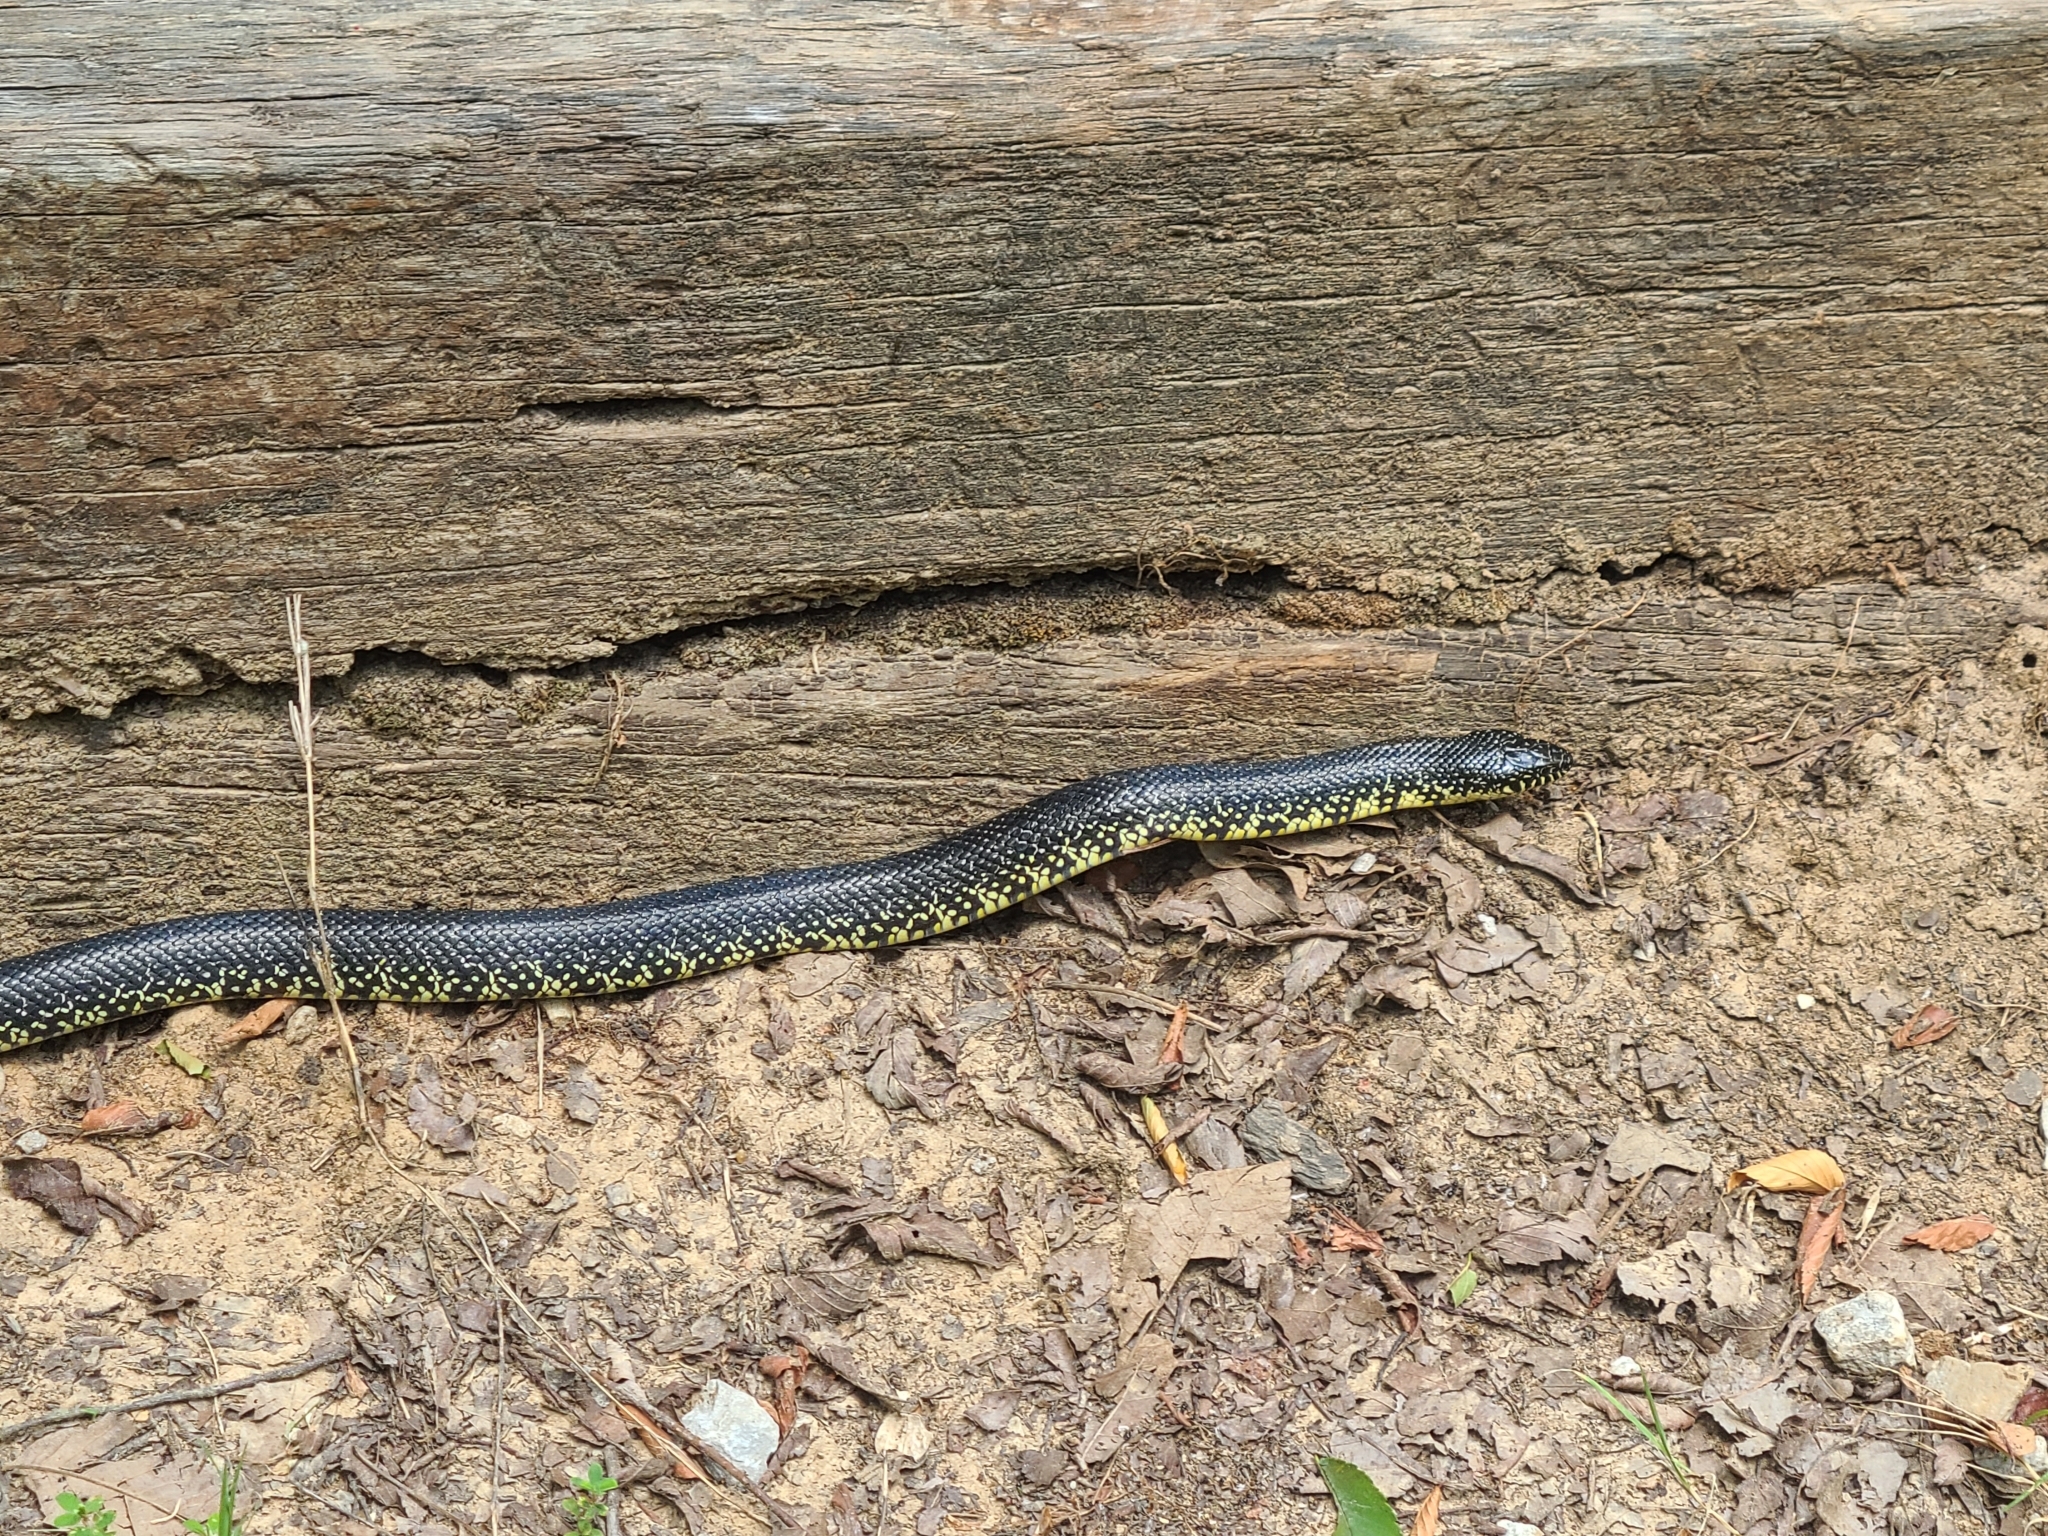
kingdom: Animalia
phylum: Chordata
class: Squamata
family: Colubridae
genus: Lampropeltis
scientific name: Lampropeltis holbrooki
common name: Speckled kingsnake
